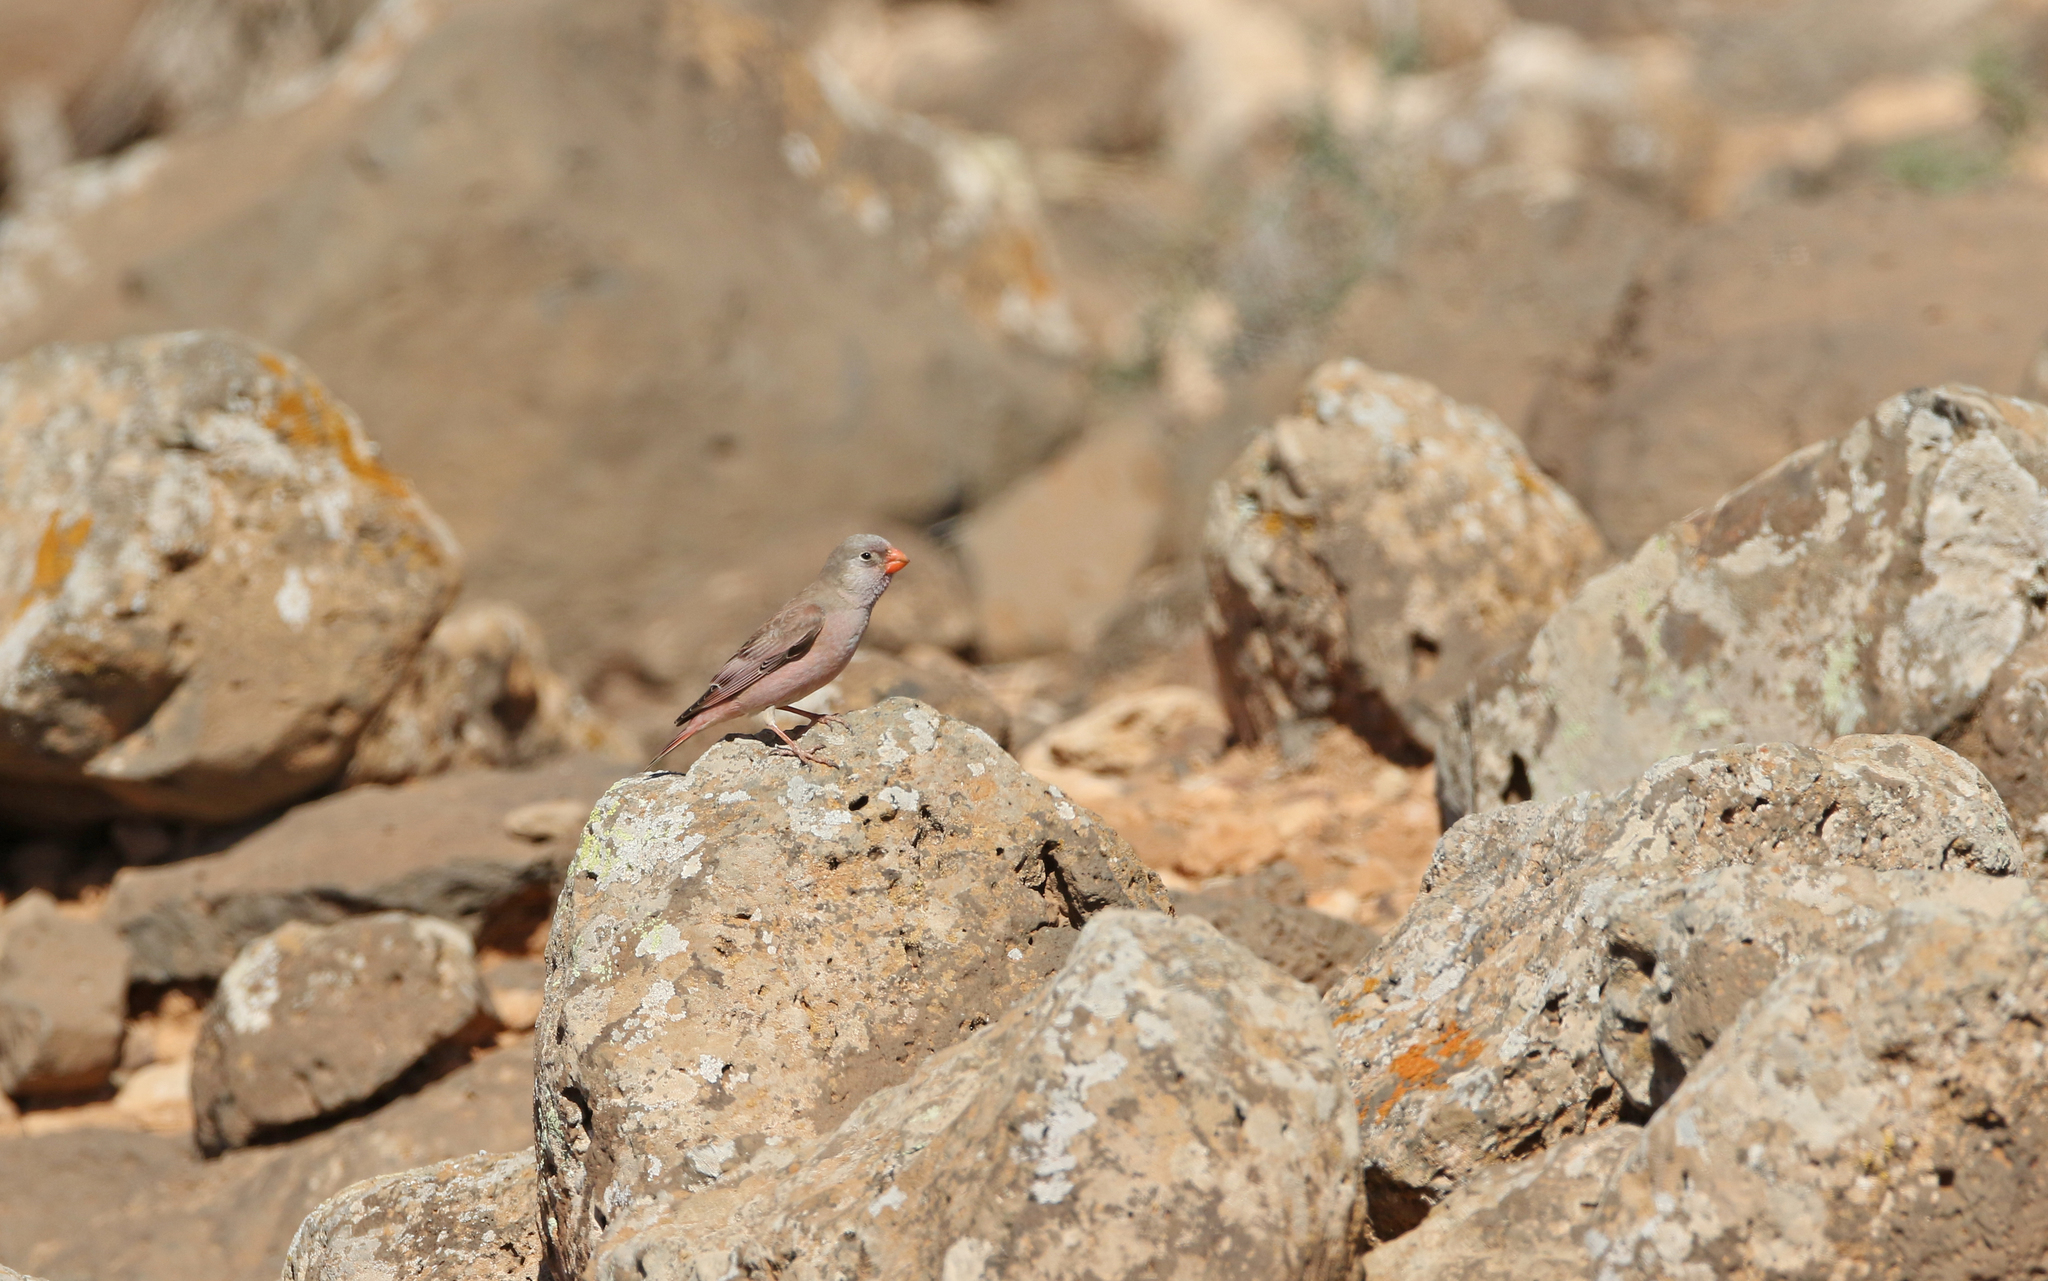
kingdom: Animalia
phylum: Chordata
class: Aves
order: Passeriformes
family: Fringillidae
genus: Bucanetes
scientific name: Bucanetes githagineus
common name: Trumpeter finch
